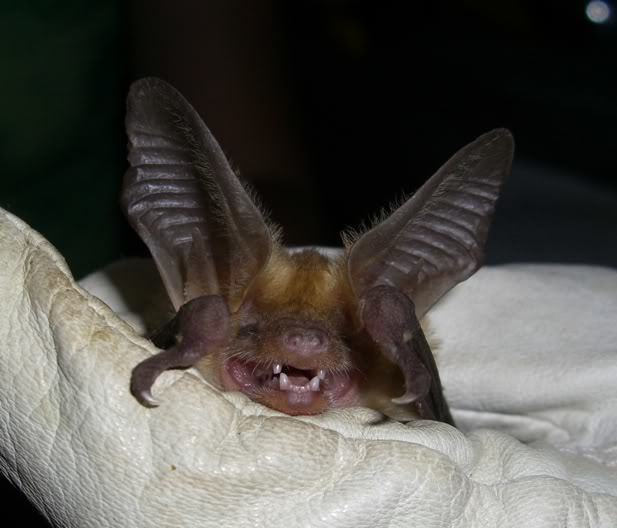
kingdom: Animalia
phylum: Chordata
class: Mammalia
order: Chiroptera
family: Vespertilionidae
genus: Antrozous
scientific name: Antrozous pallidus
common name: Pallid bat
